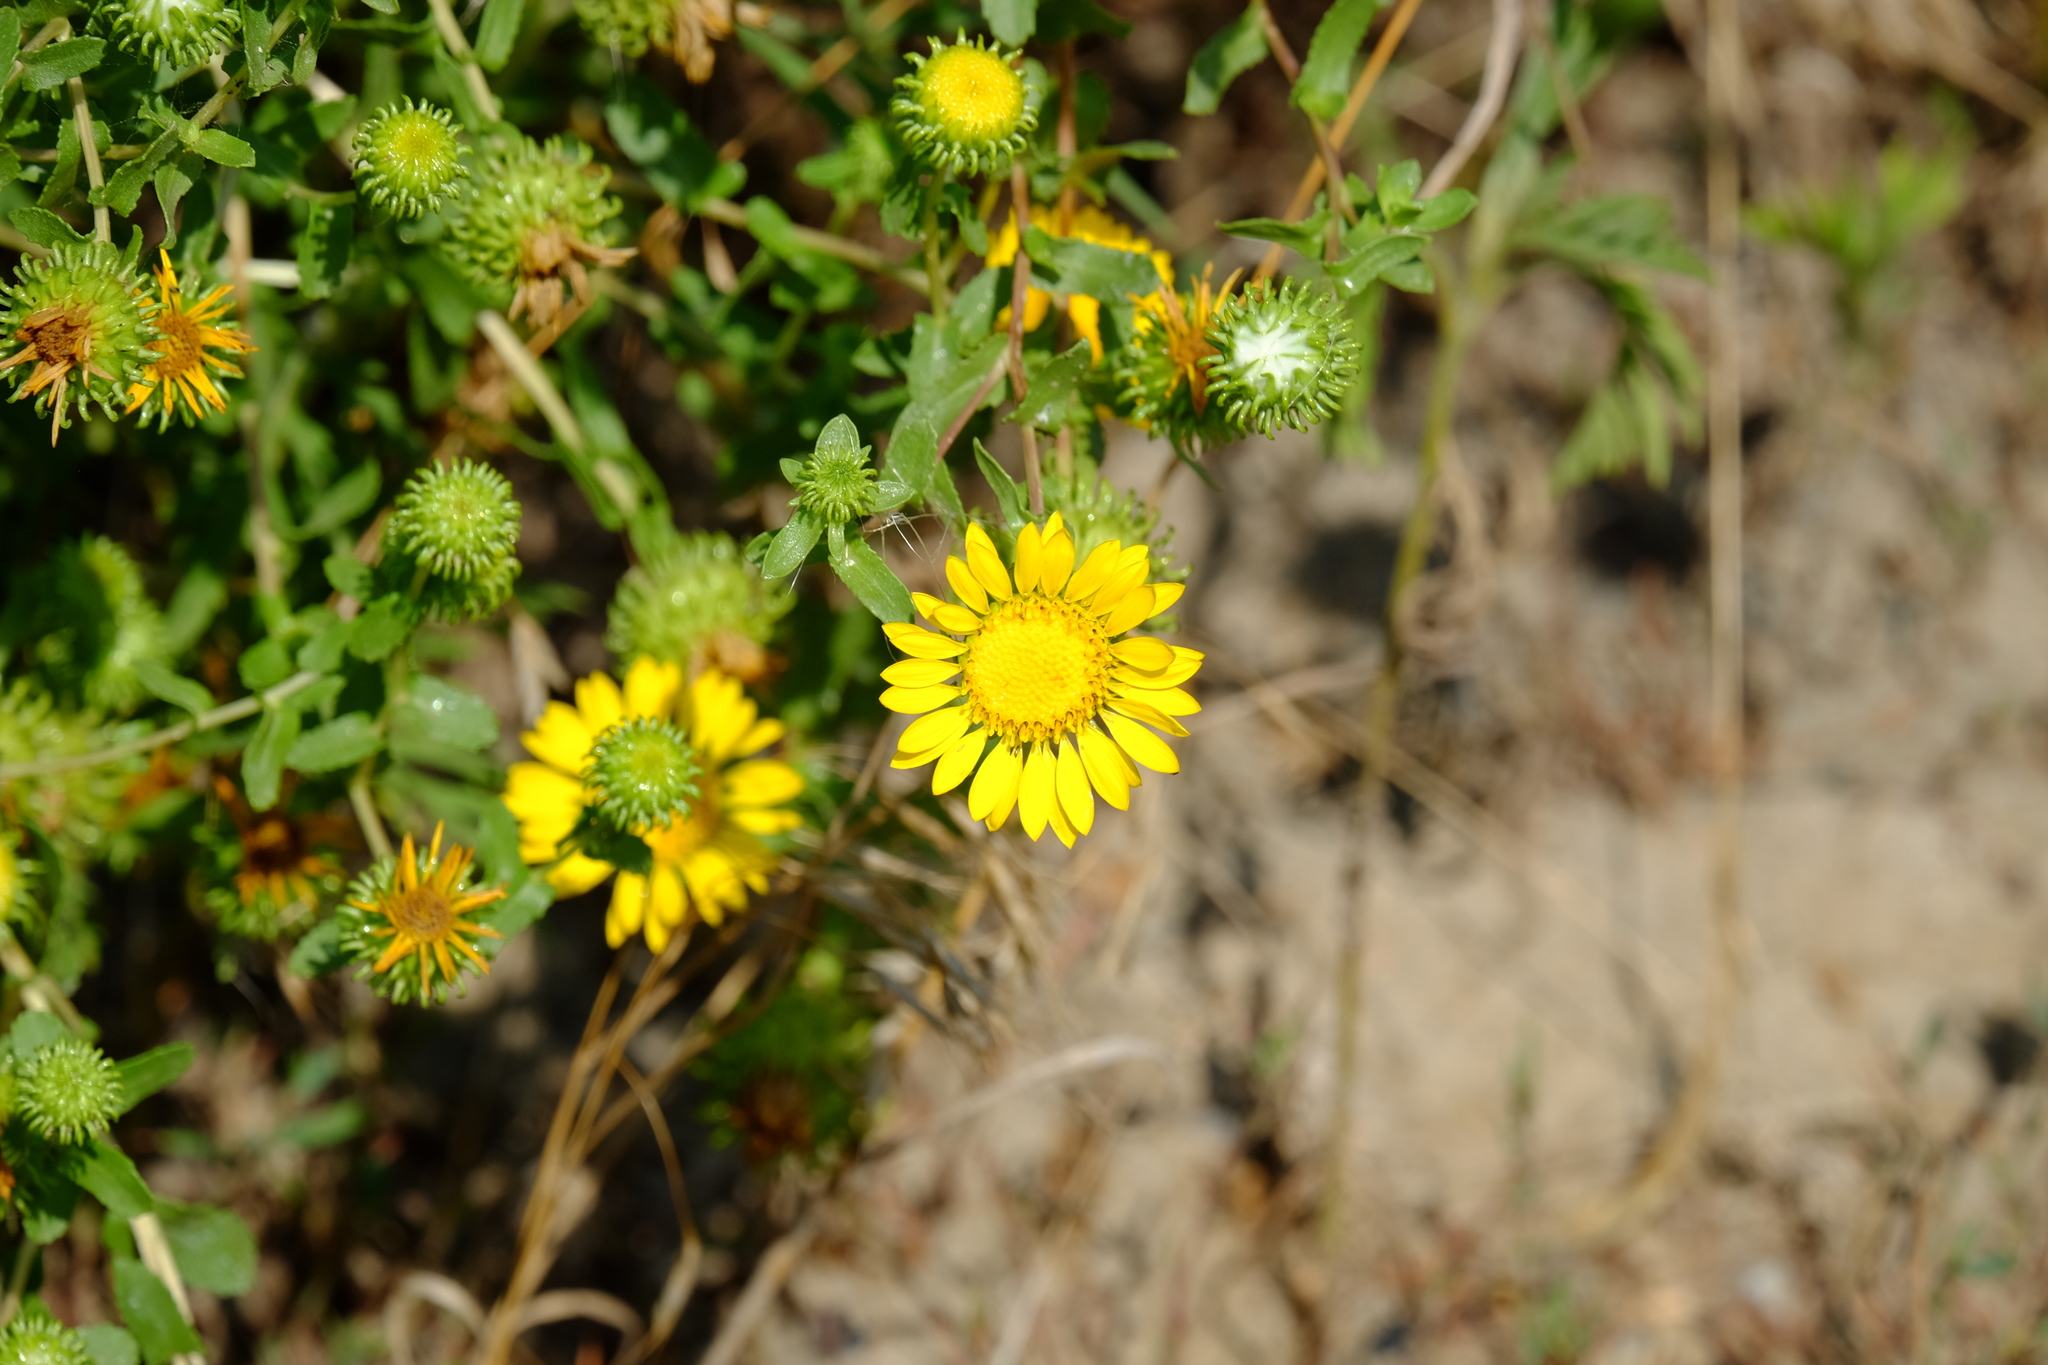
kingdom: Plantae
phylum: Tracheophyta
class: Magnoliopsida
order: Asterales
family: Asteraceae
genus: Grindelia
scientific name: Grindelia squarrosa
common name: Curly-cup gumweed
